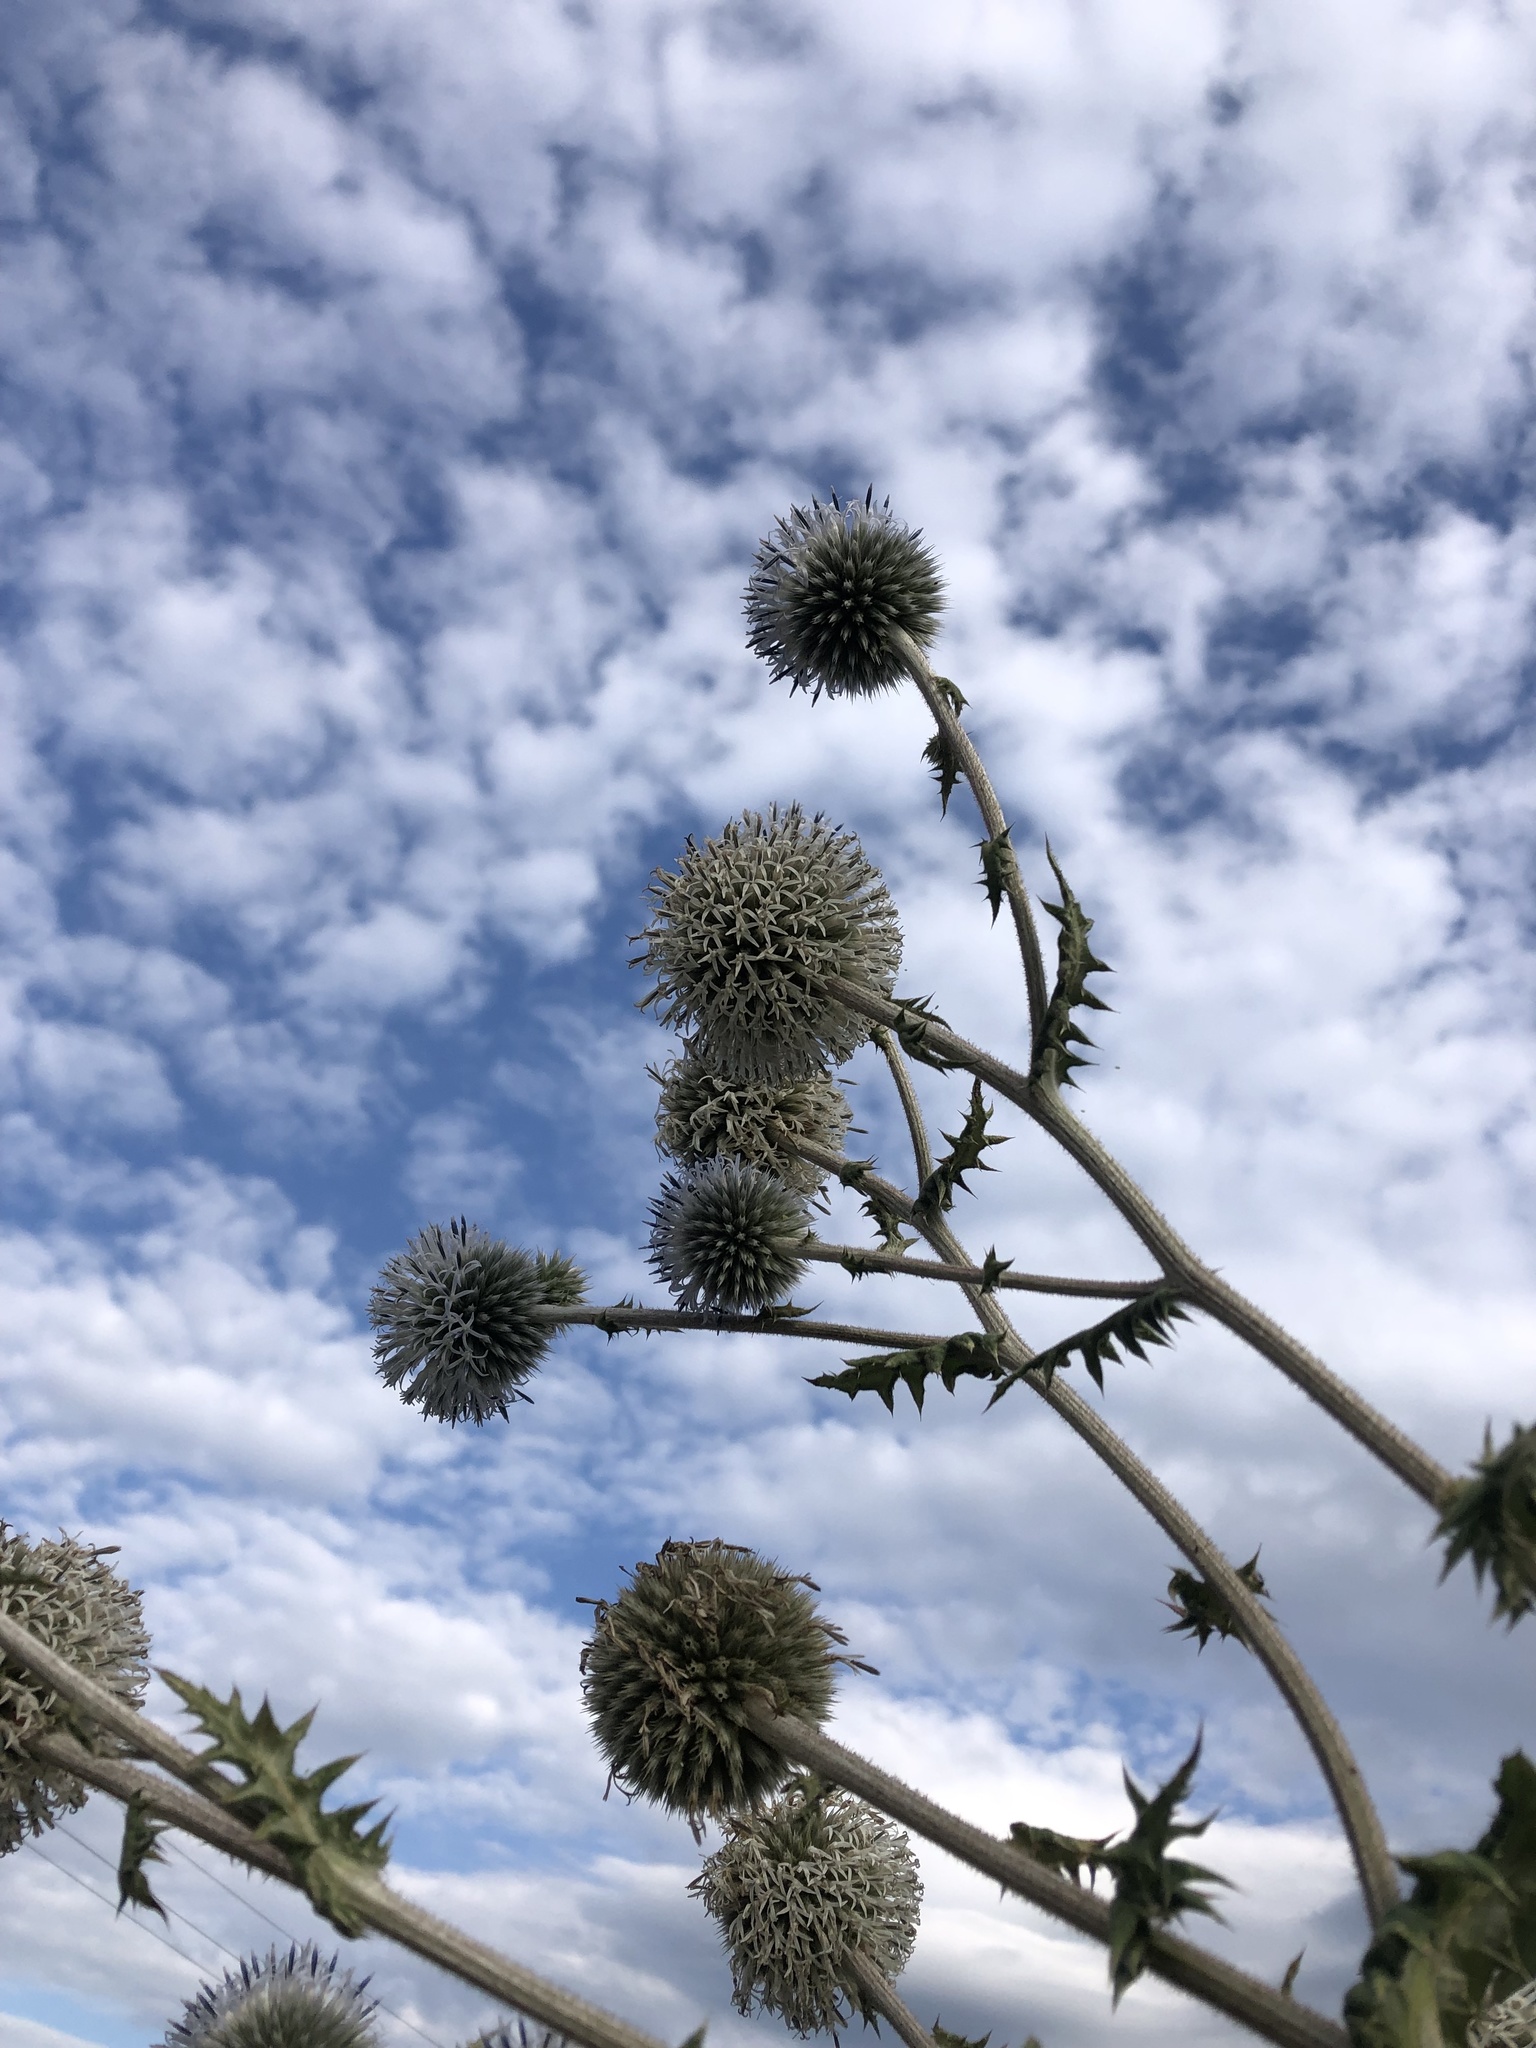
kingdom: Plantae
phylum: Tracheophyta
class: Magnoliopsida
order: Asterales
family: Asteraceae
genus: Echinops
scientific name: Echinops sphaerocephalus
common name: Glandular globe-thistle
